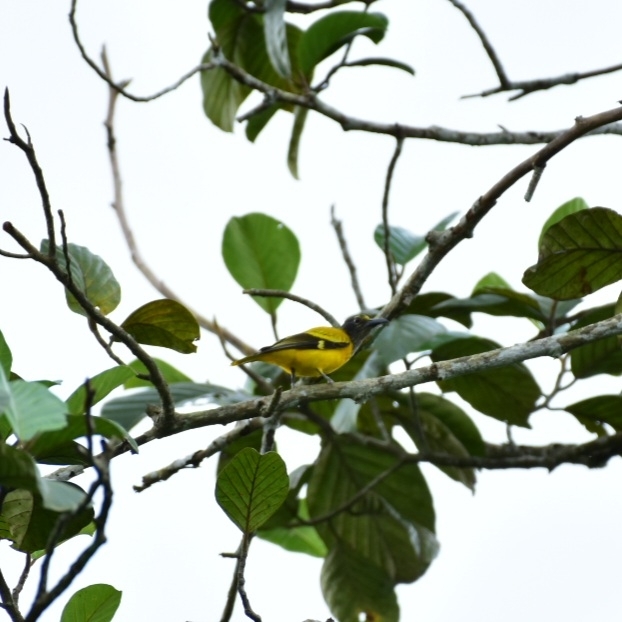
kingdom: Animalia
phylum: Chordata
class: Aves
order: Passeriformes
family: Oriolidae
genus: Oriolus
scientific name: Oriolus xanthornus
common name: Black-hooded oriole
